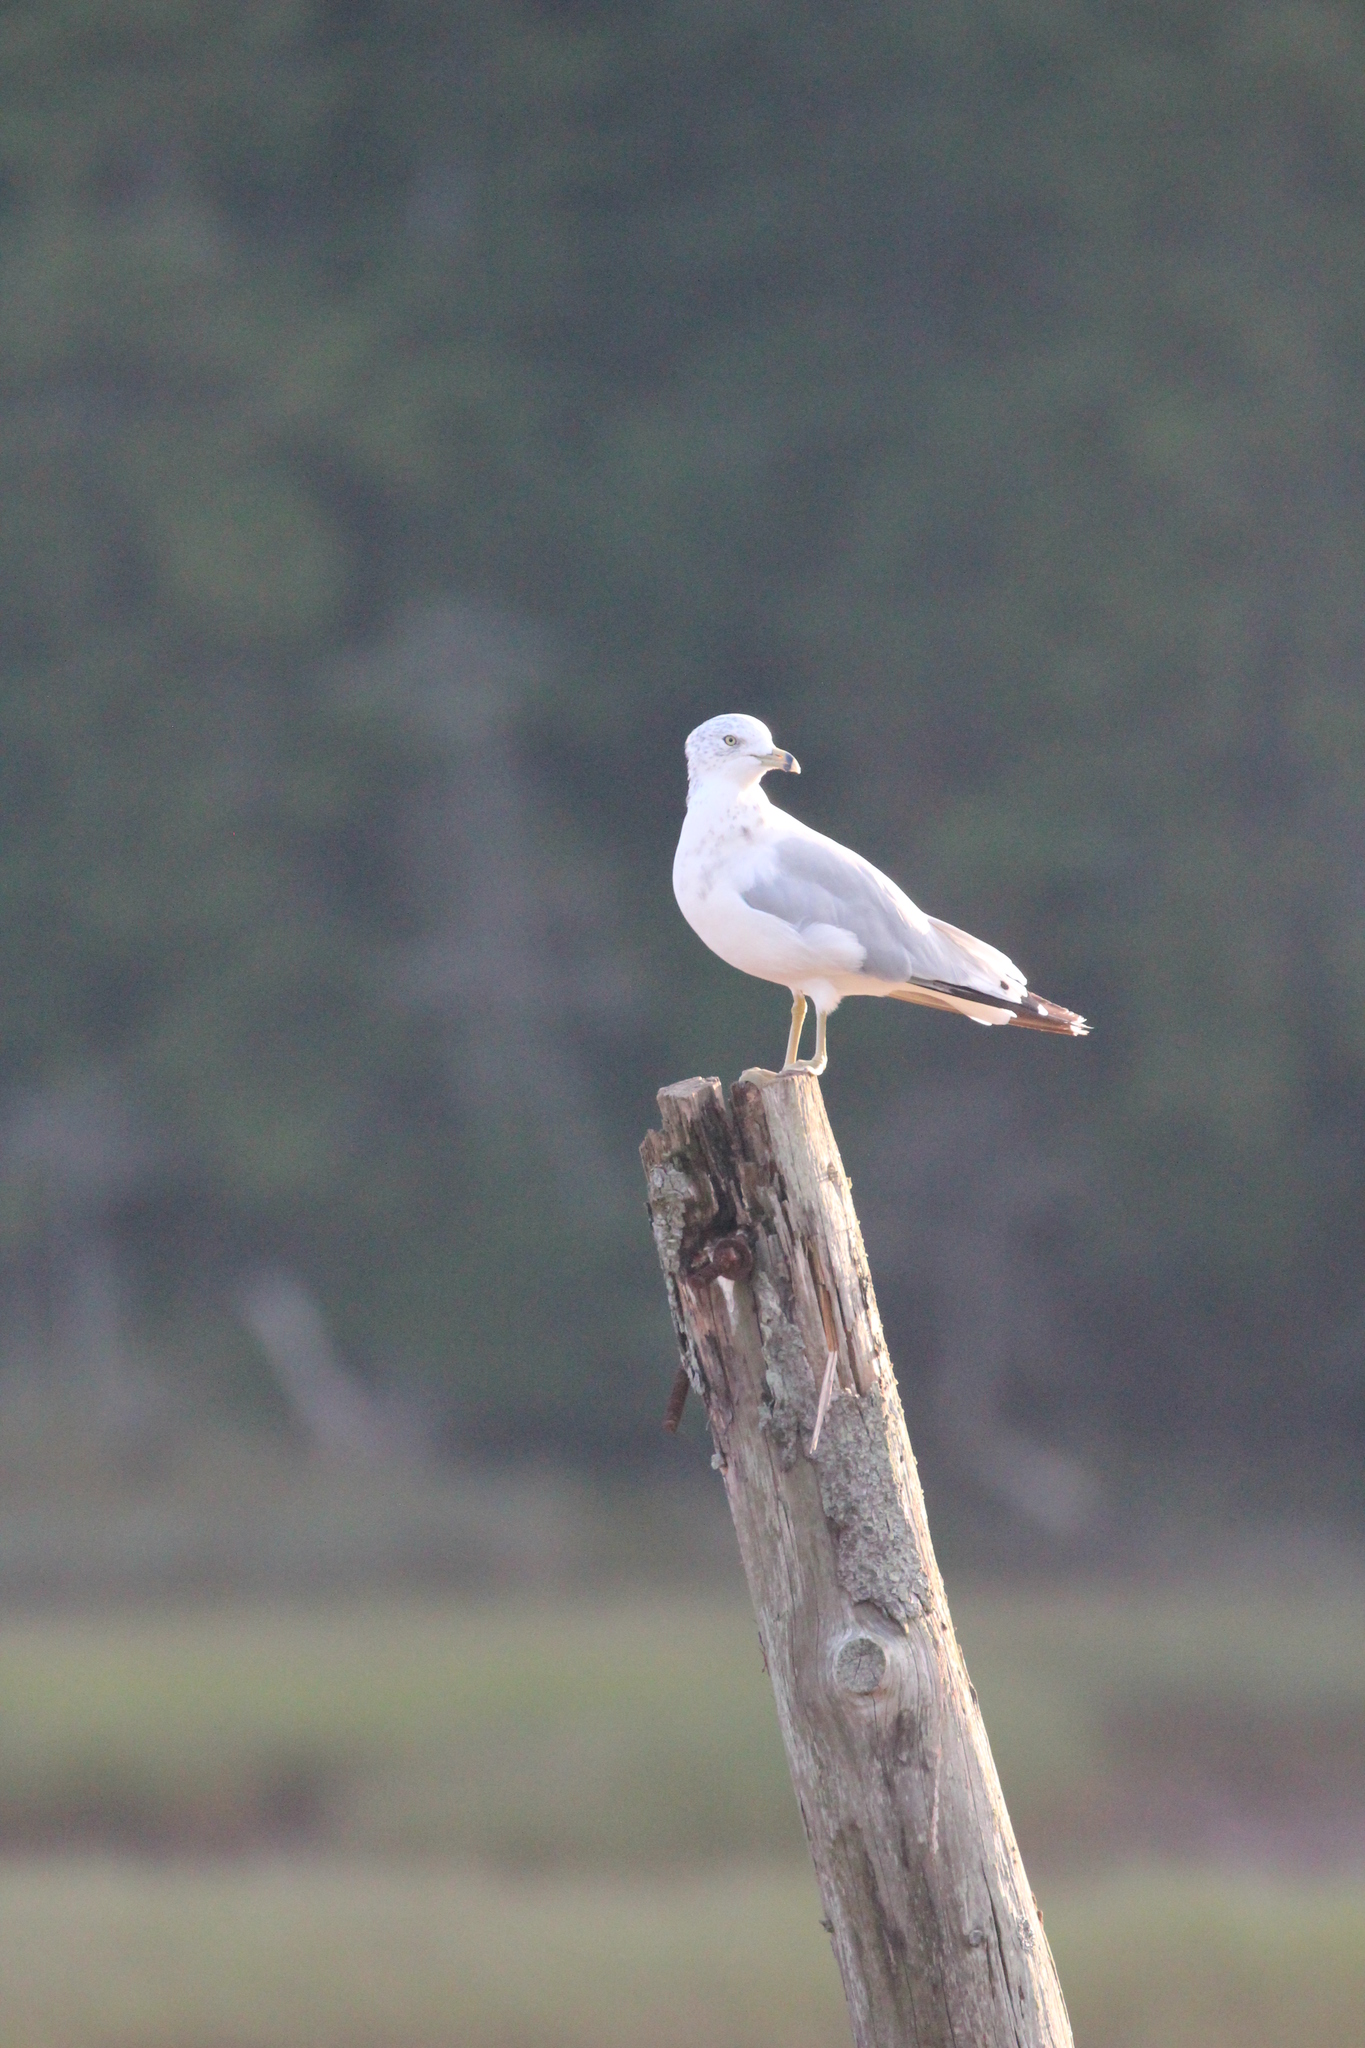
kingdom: Animalia
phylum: Chordata
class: Aves
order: Charadriiformes
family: Laridae
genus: Larus
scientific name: Larus delawarensis
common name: Ring-billed gull
